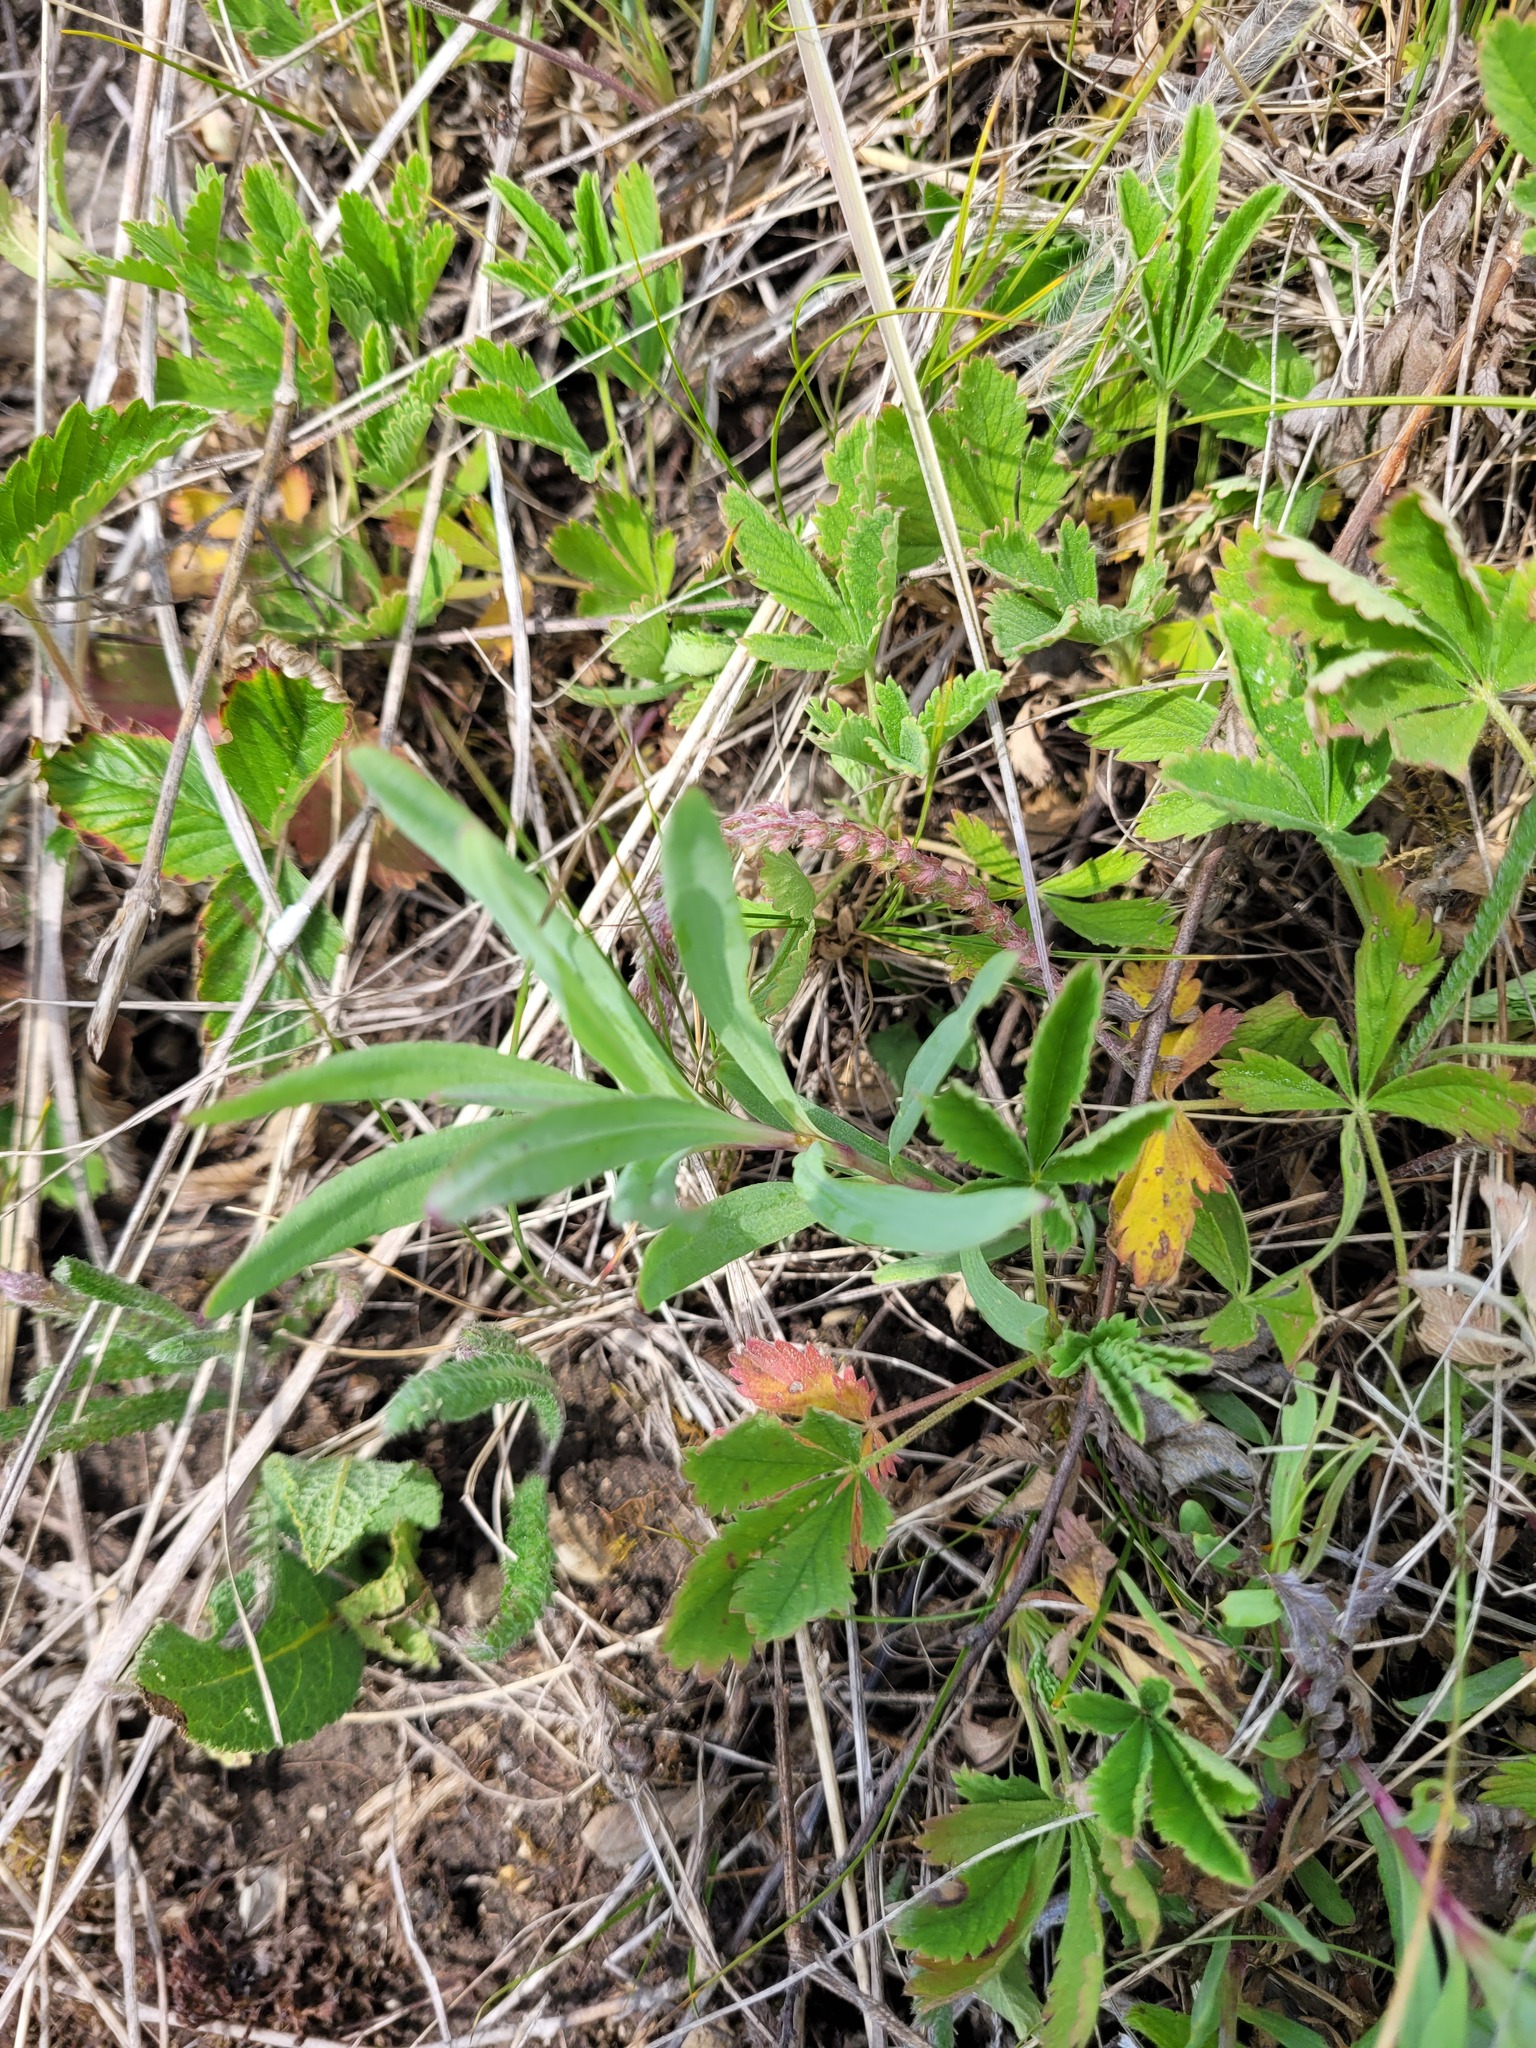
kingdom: Plantae
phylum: Tracheophyta
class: Magnoliopsida
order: Caryophyllales
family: Caryophyllaceae
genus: Gypsophila
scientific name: Gypsophila altissima
